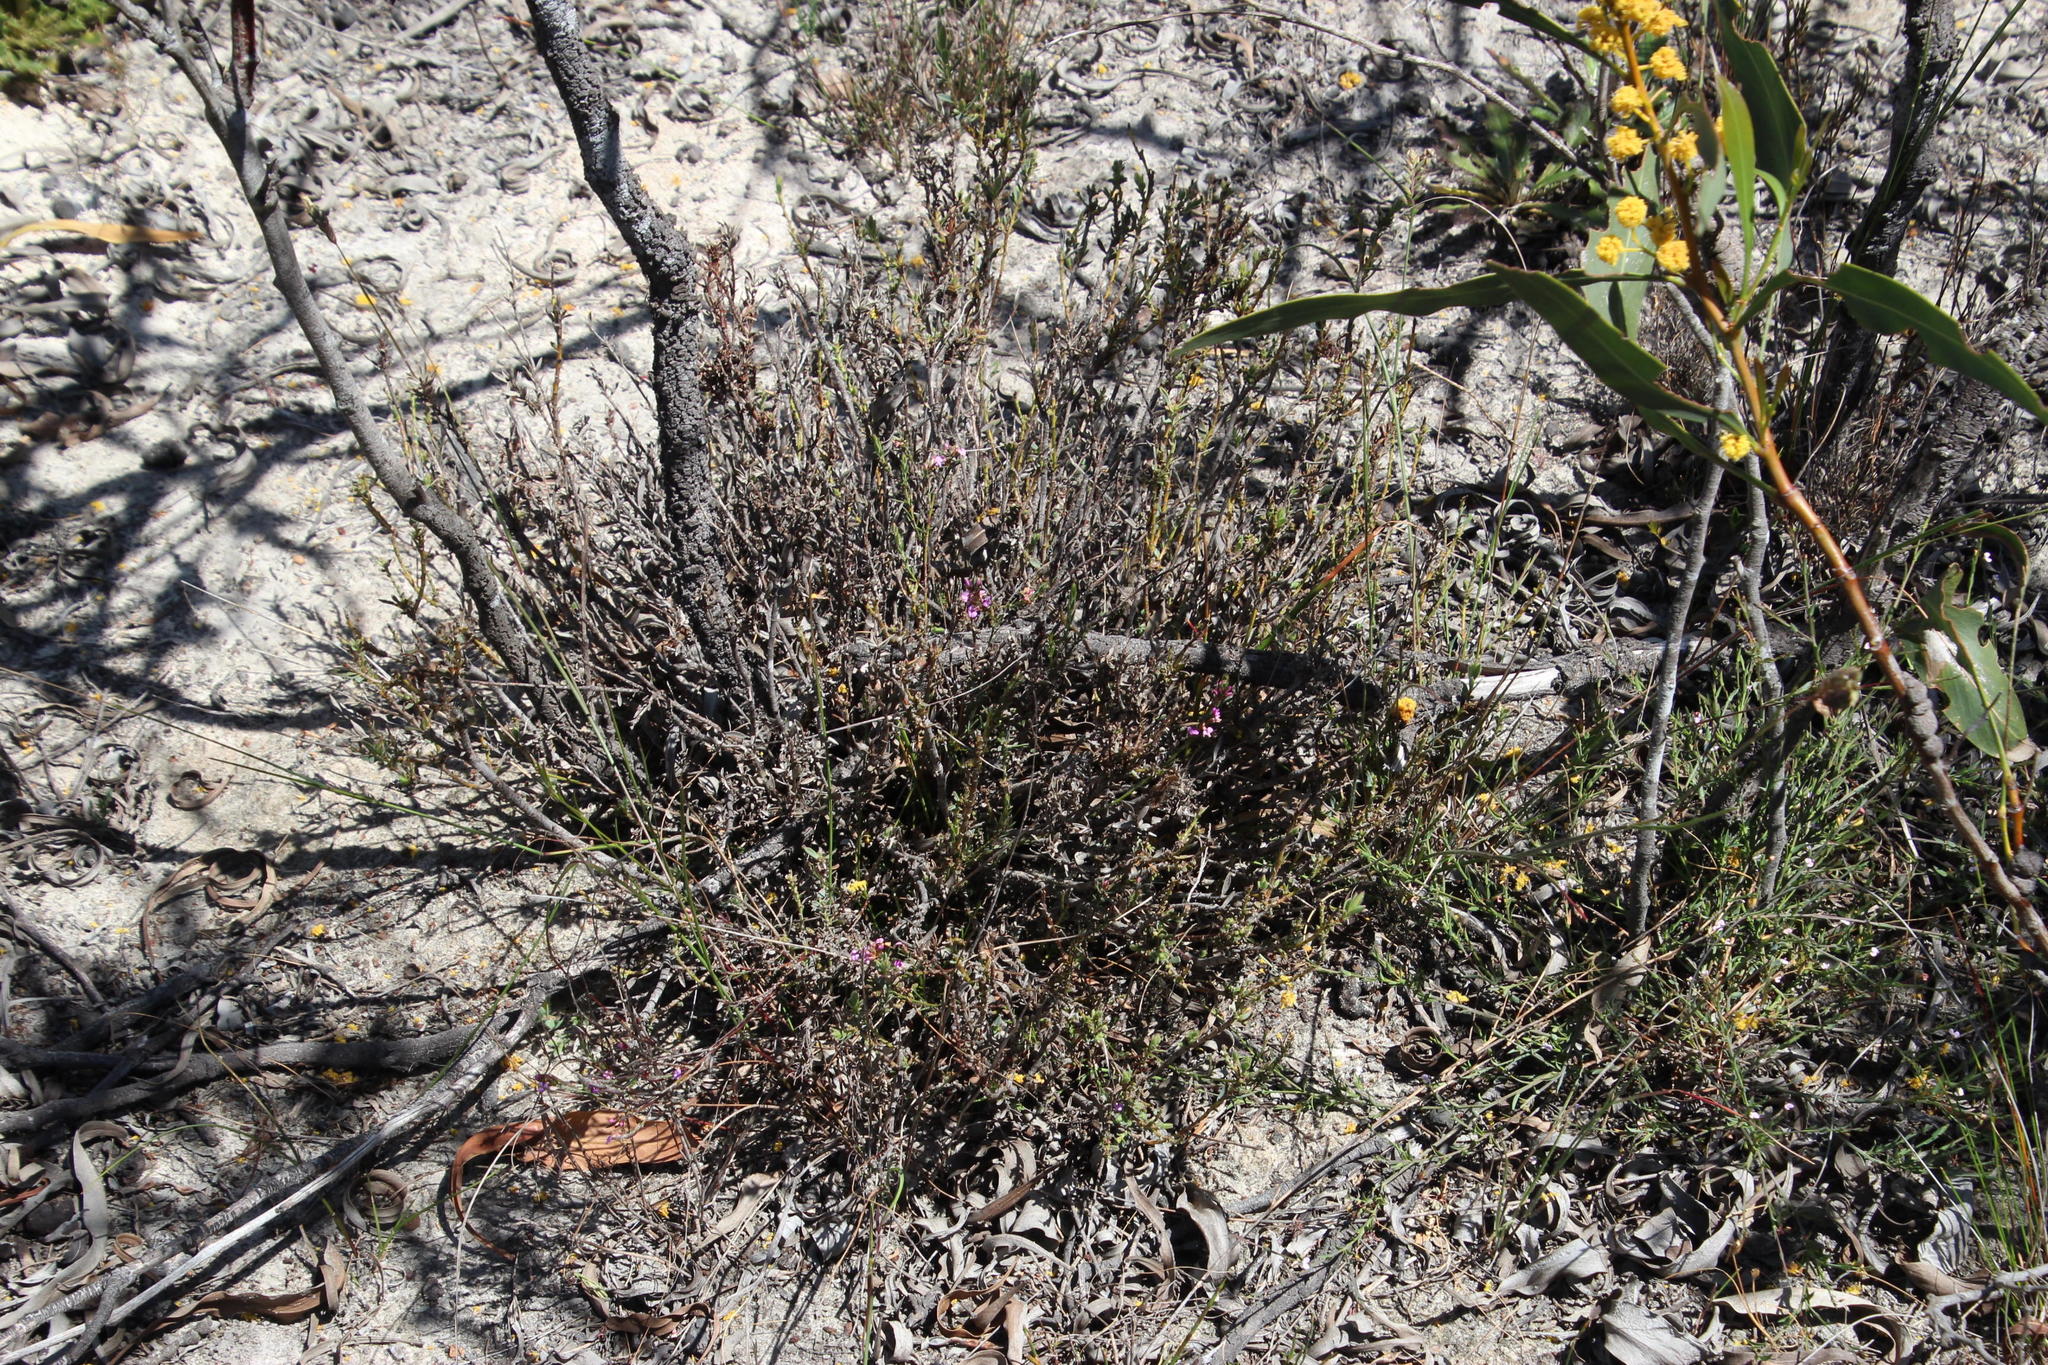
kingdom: Plantae
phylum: Tracheophyta
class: Magnoliopsida
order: Fabales
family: Polygalaceae
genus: Muraltia
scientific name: Muraltia trinervia
